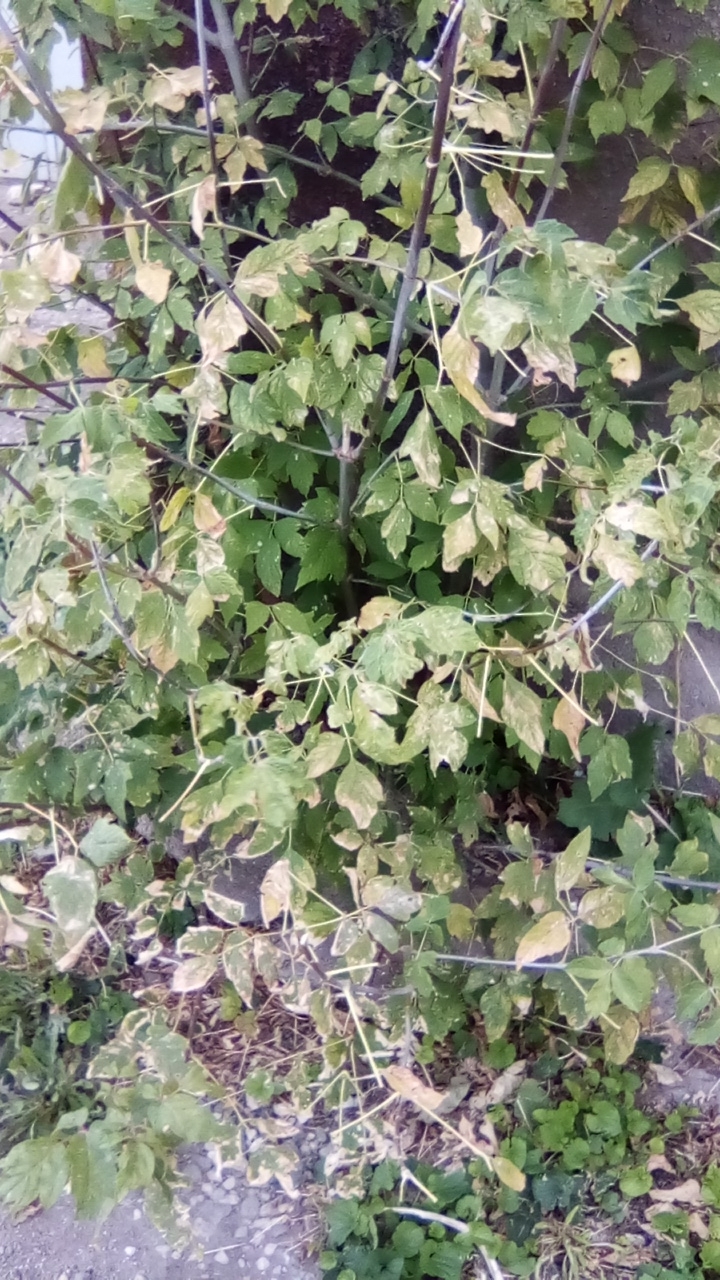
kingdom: Plantae
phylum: Tracheophyta
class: Magnoliopsida
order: Sapindales
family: Sapindaceae
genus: Acer
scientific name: Acer negundo
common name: Ashleaf maple
